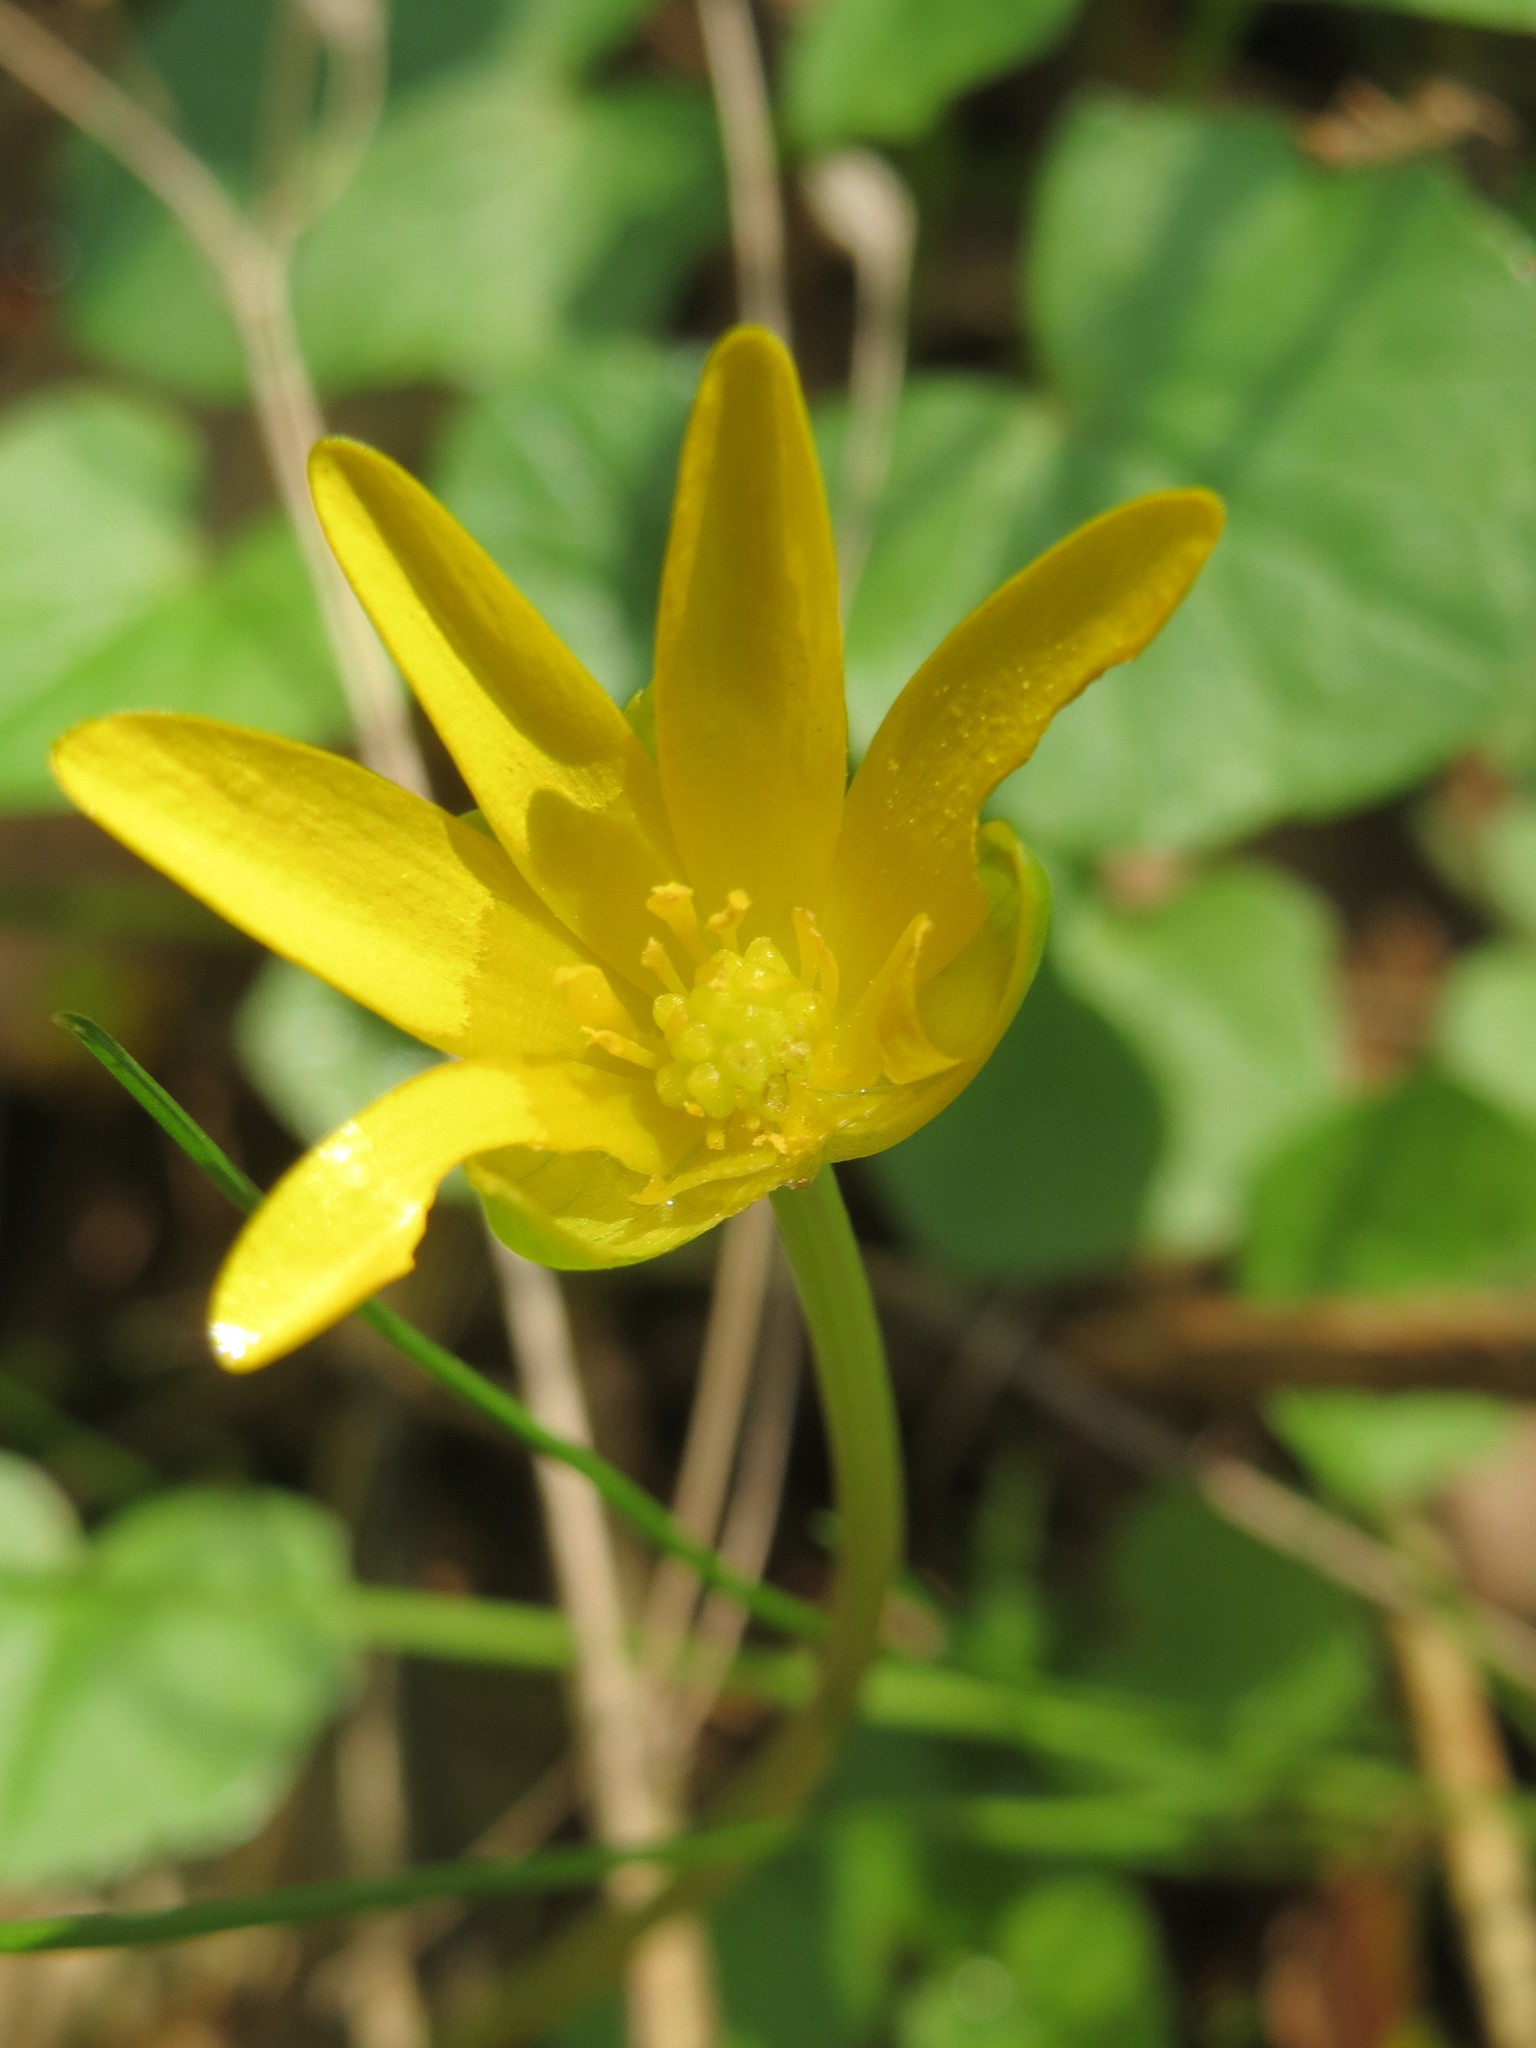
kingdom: Plantae
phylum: Tracheophyta
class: Magnoliopsida
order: Ranunculales
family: Ranunculaceae
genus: Ficaria
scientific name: Ficaria verna
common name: Lesser celandine
